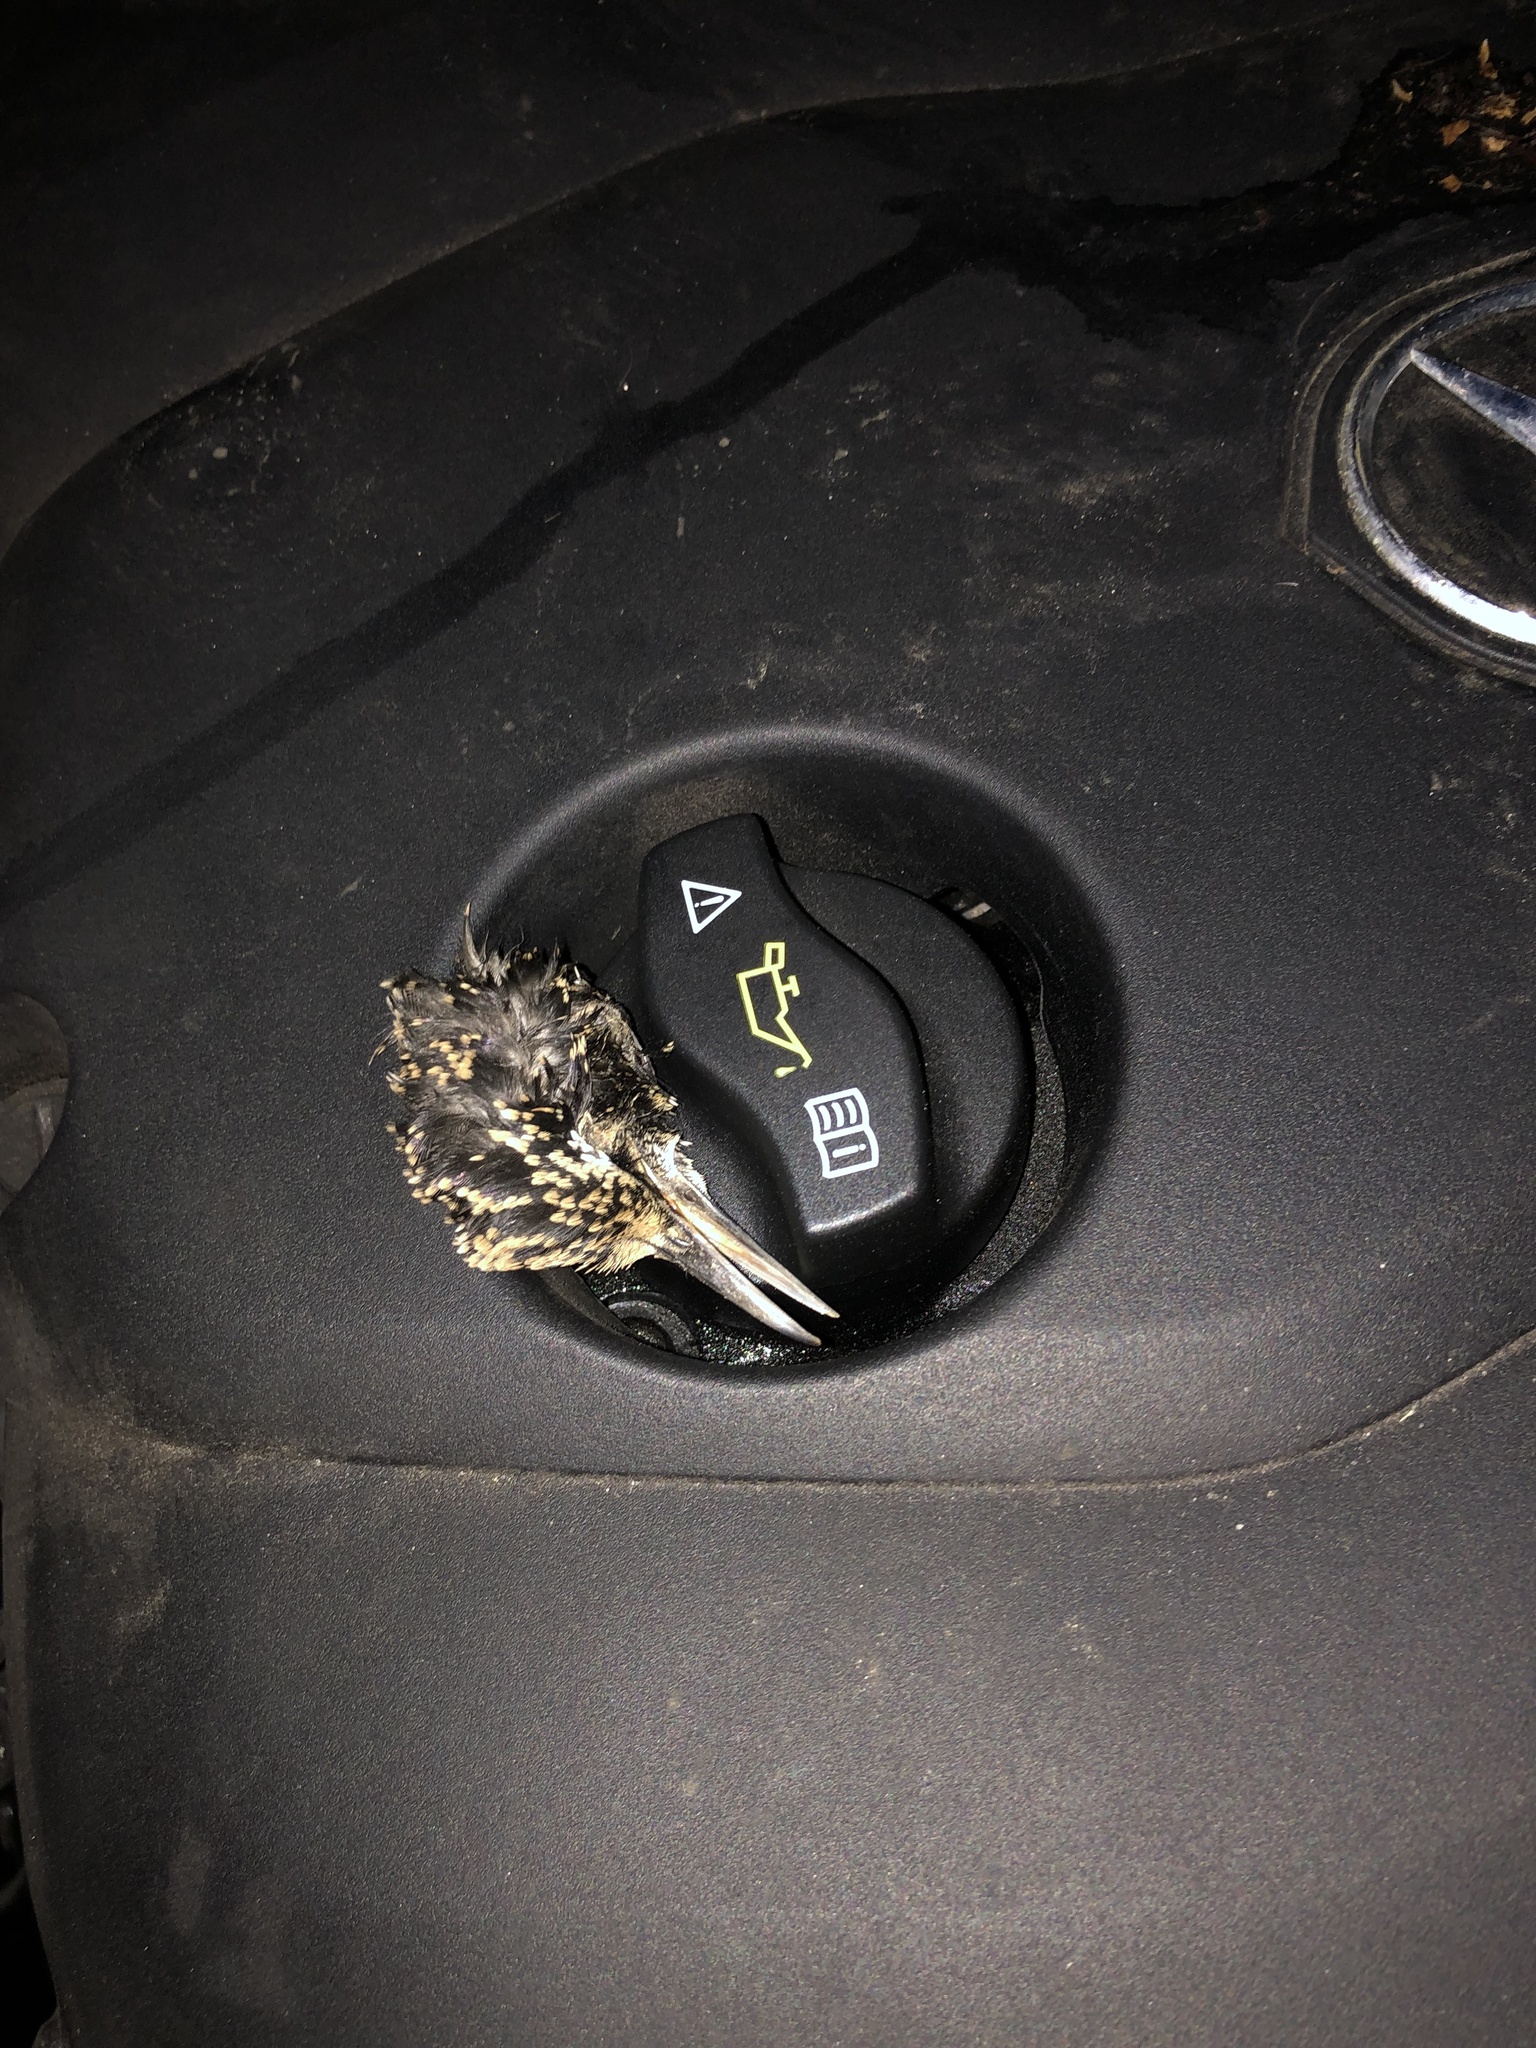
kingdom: Animalia
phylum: Chordata
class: Aves
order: Passeriformes
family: Sturnidae
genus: Sturnus
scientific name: Sturnus vulgaris
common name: Common starling
